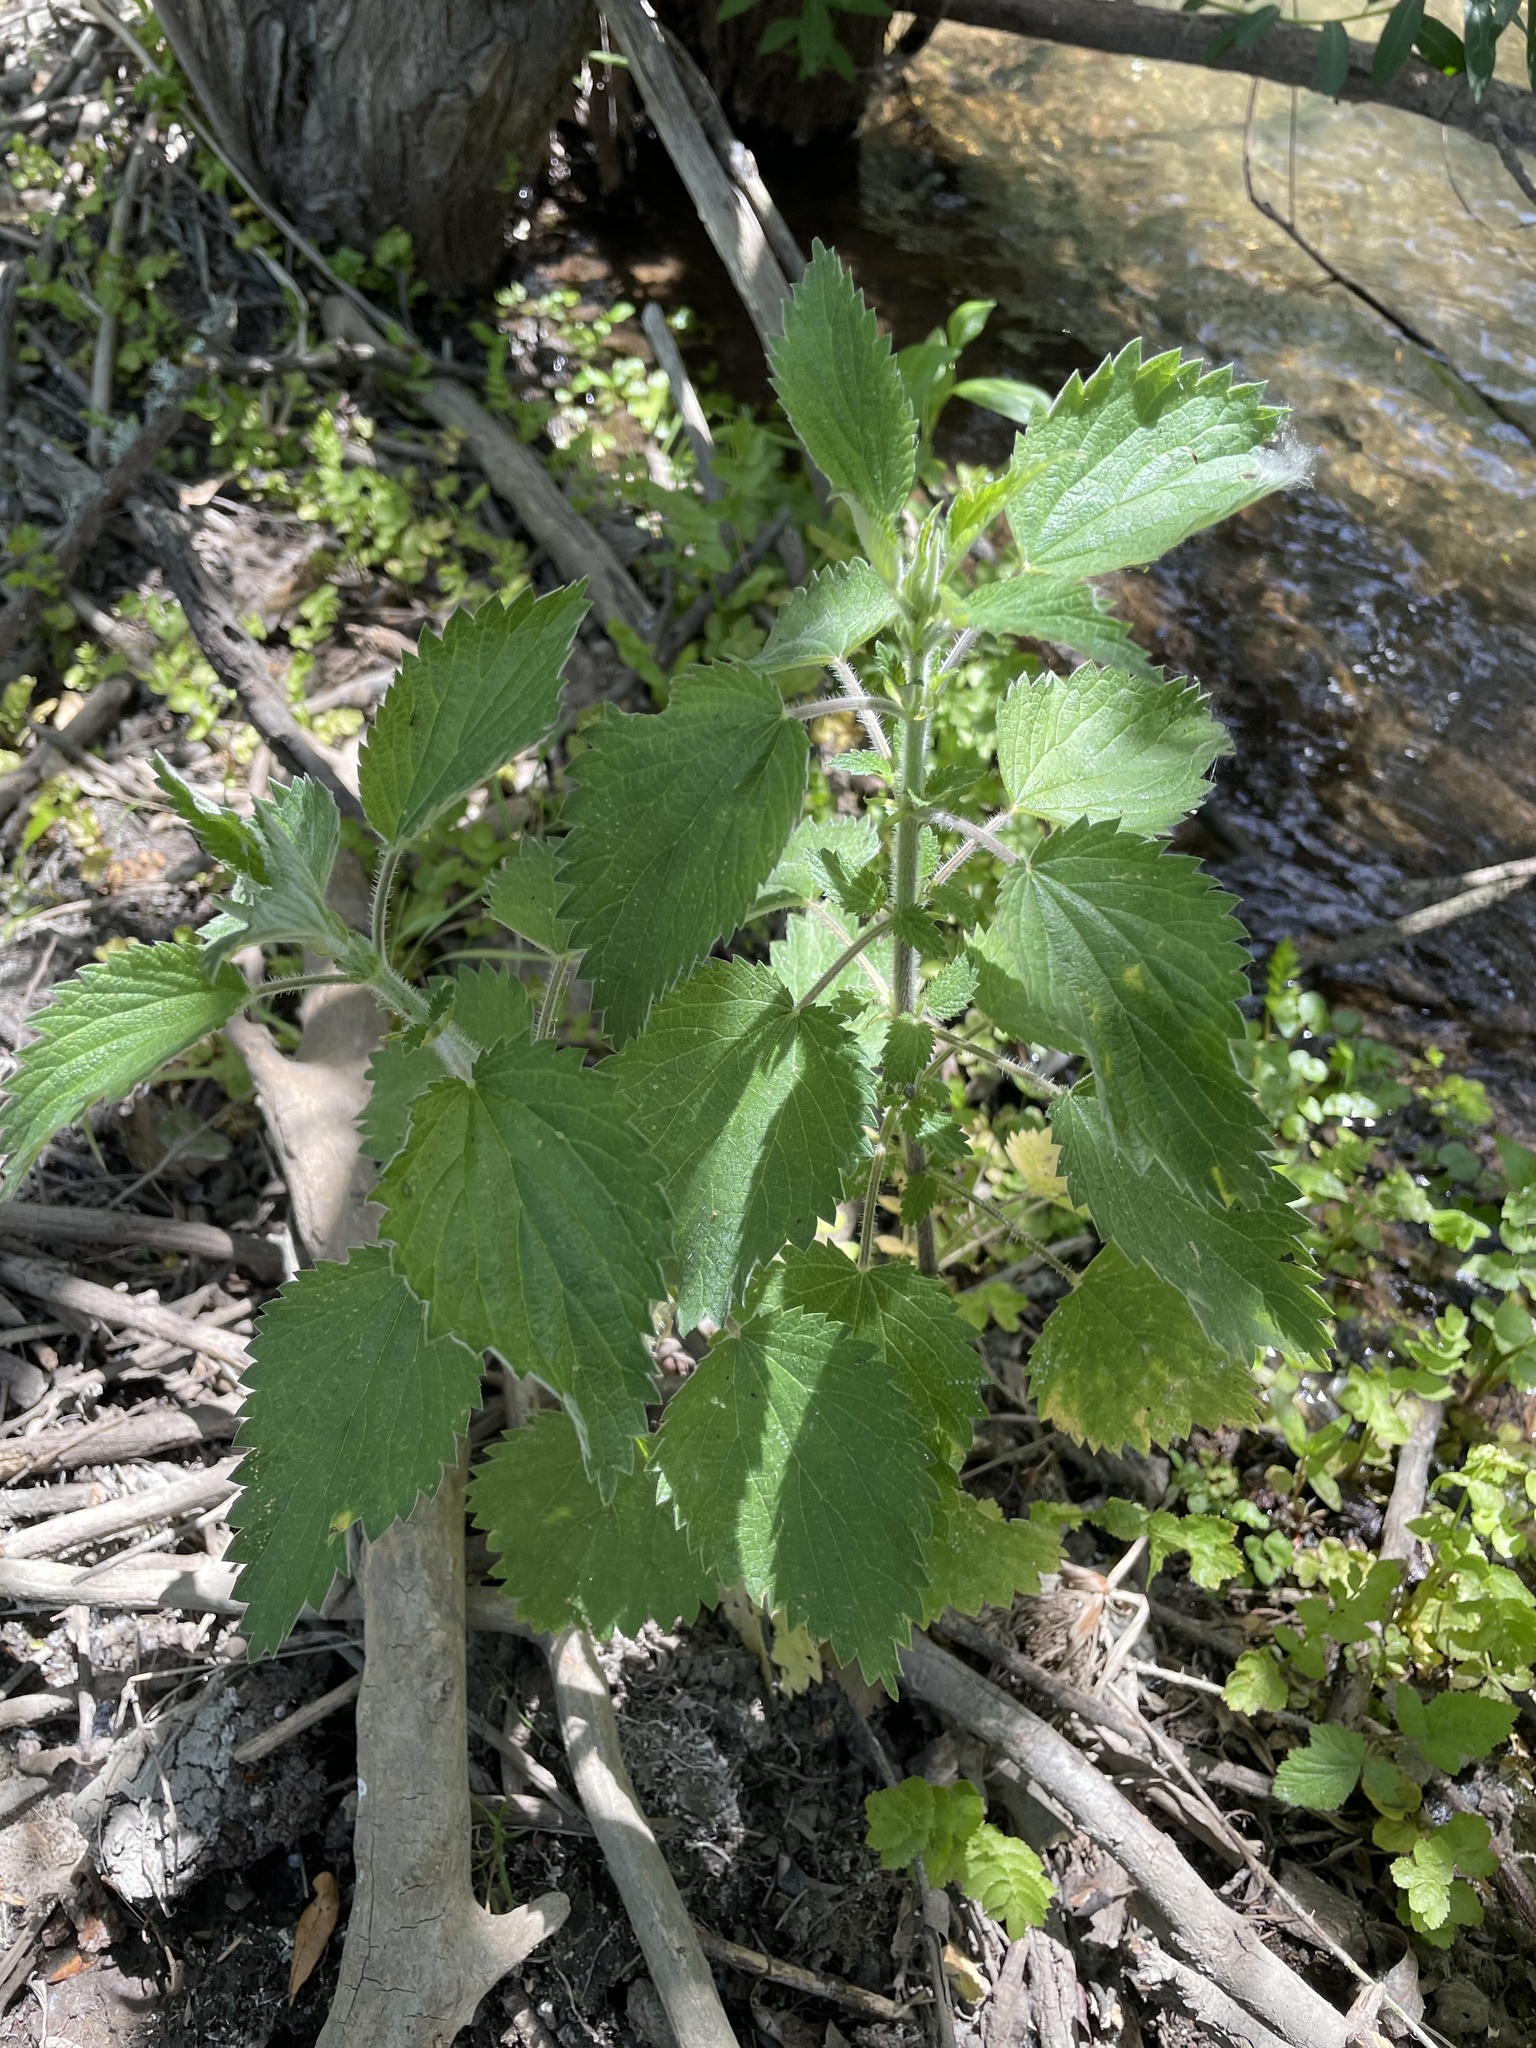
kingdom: Plantae
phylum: Tracheophyta
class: Magnoliopsida
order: Rosales
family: Urticaceae
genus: Urtica
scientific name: Urtica dioica
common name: Common nettle
